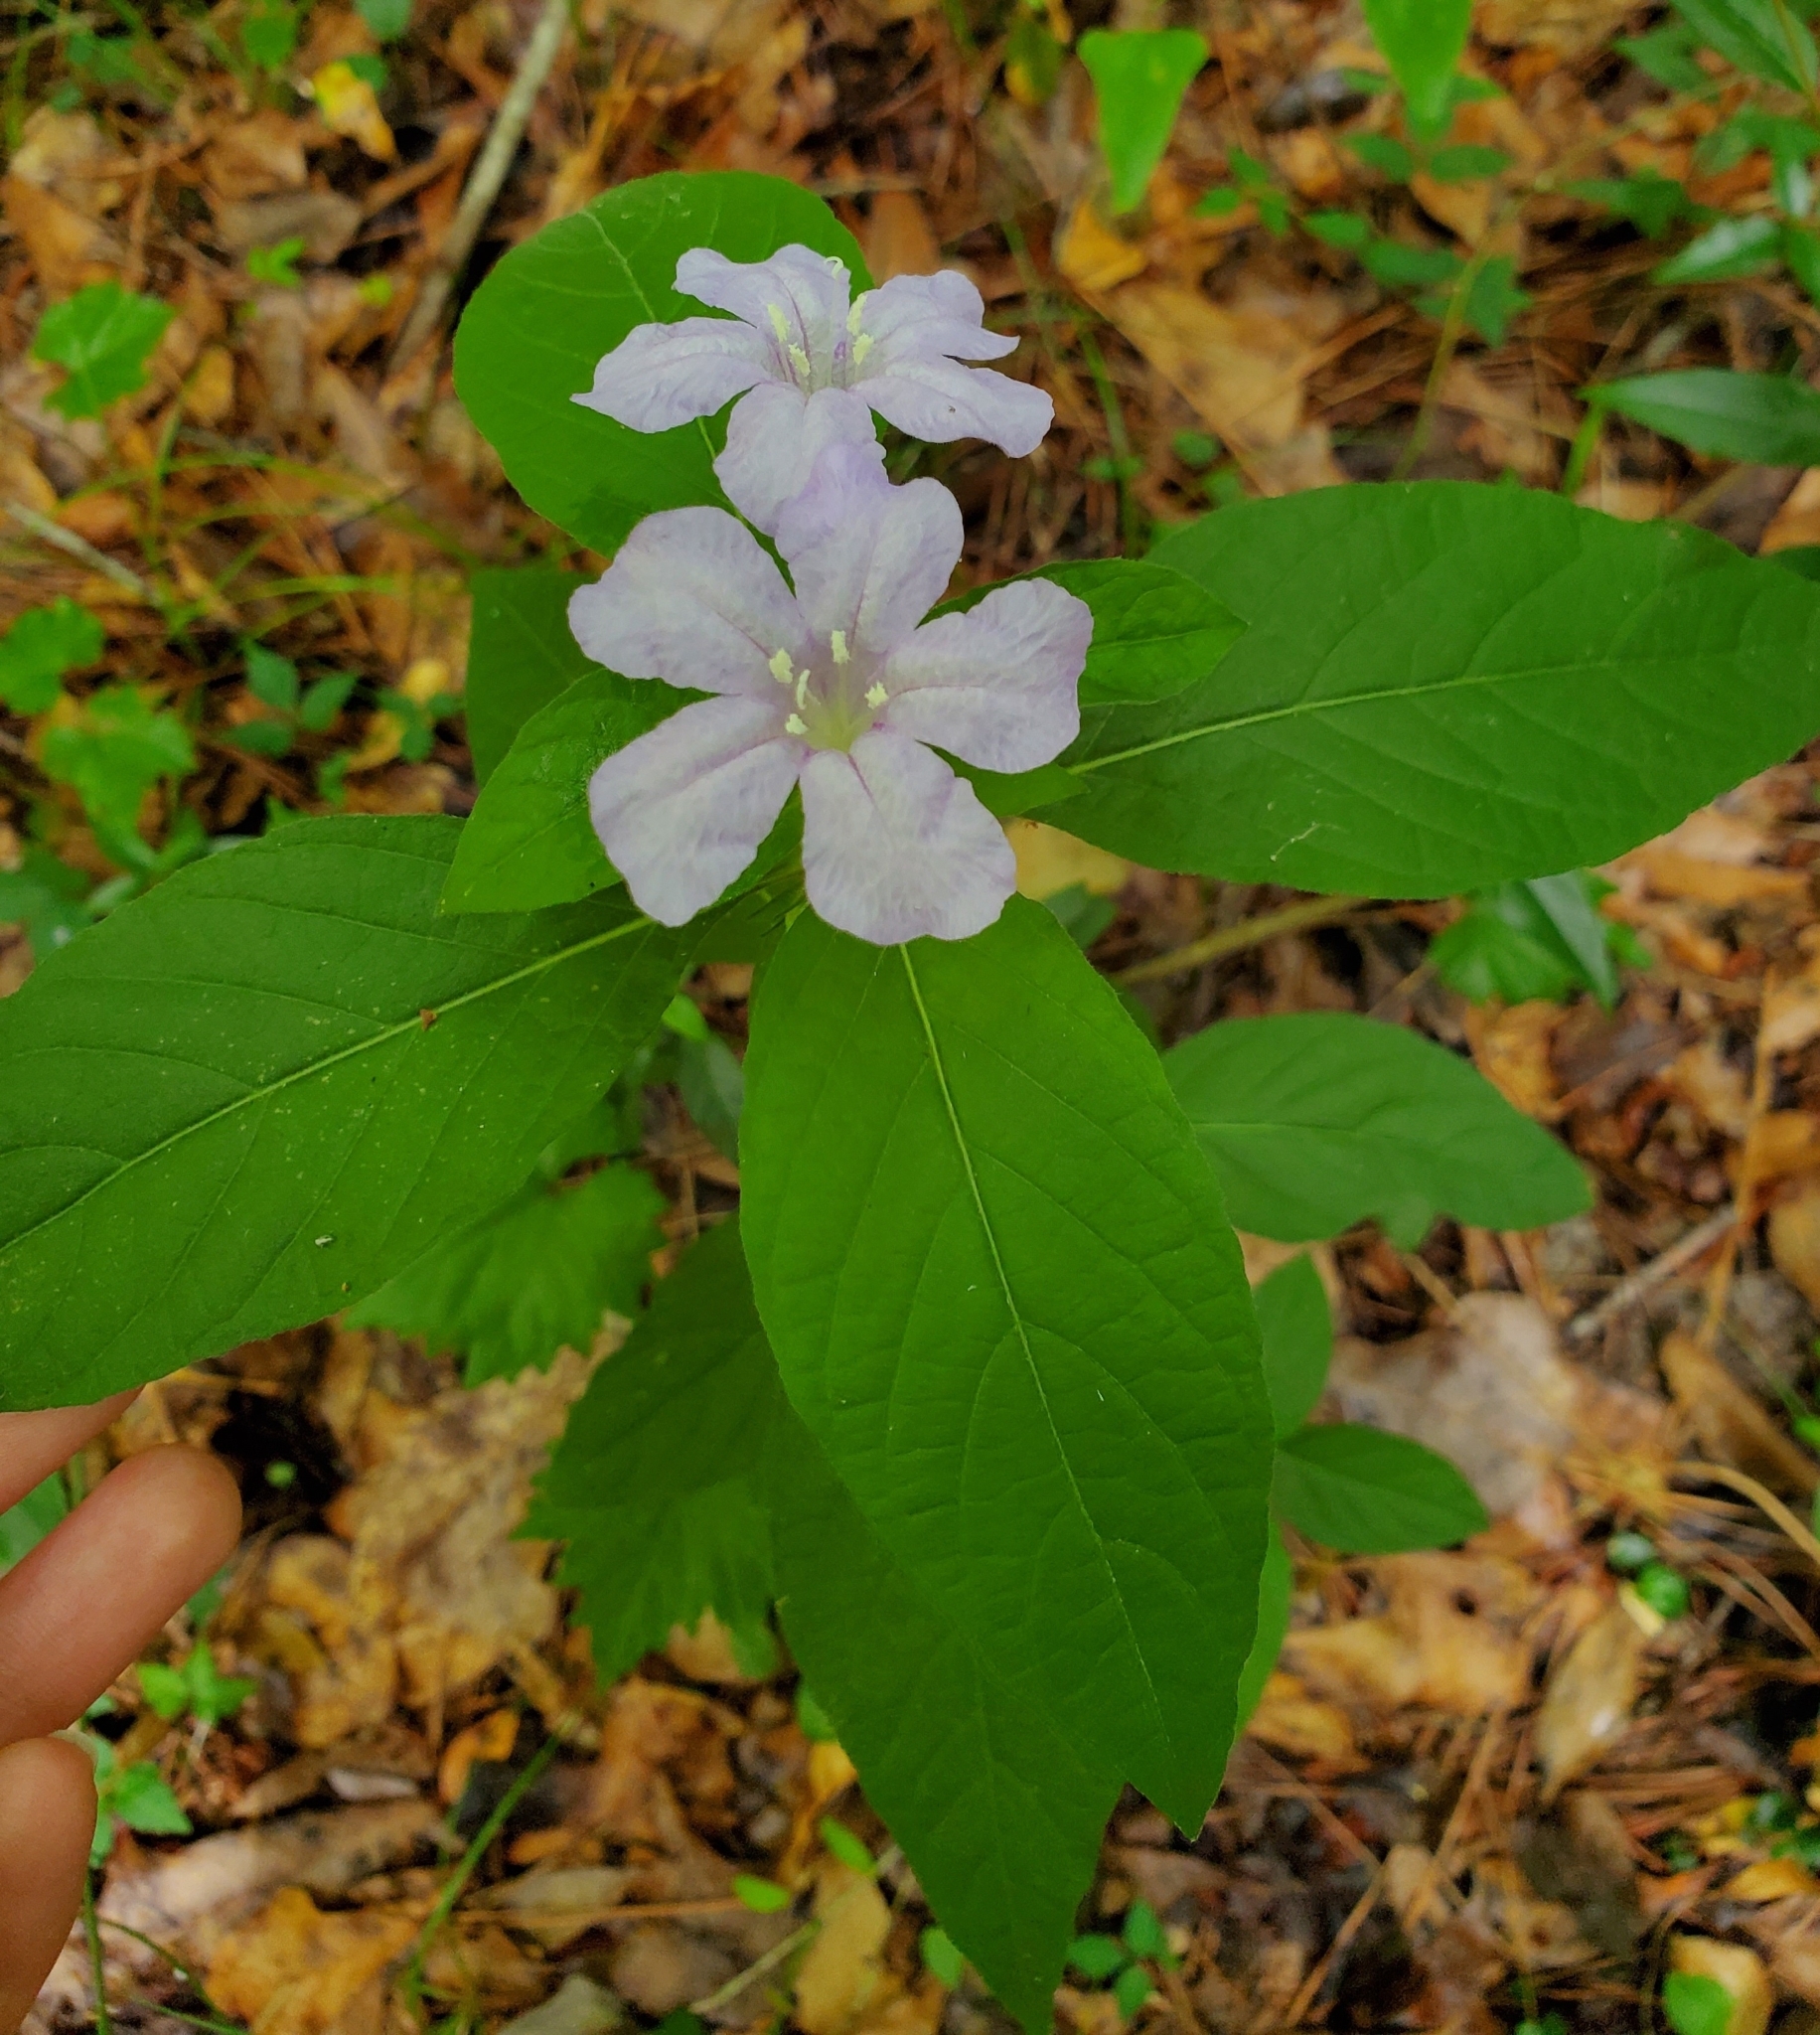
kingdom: Plantae
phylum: Tracheophyta
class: Magnoliopsida
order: Lamiales
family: Acanthaceae
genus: Ruellia
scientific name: Ruellia caroliniensis
